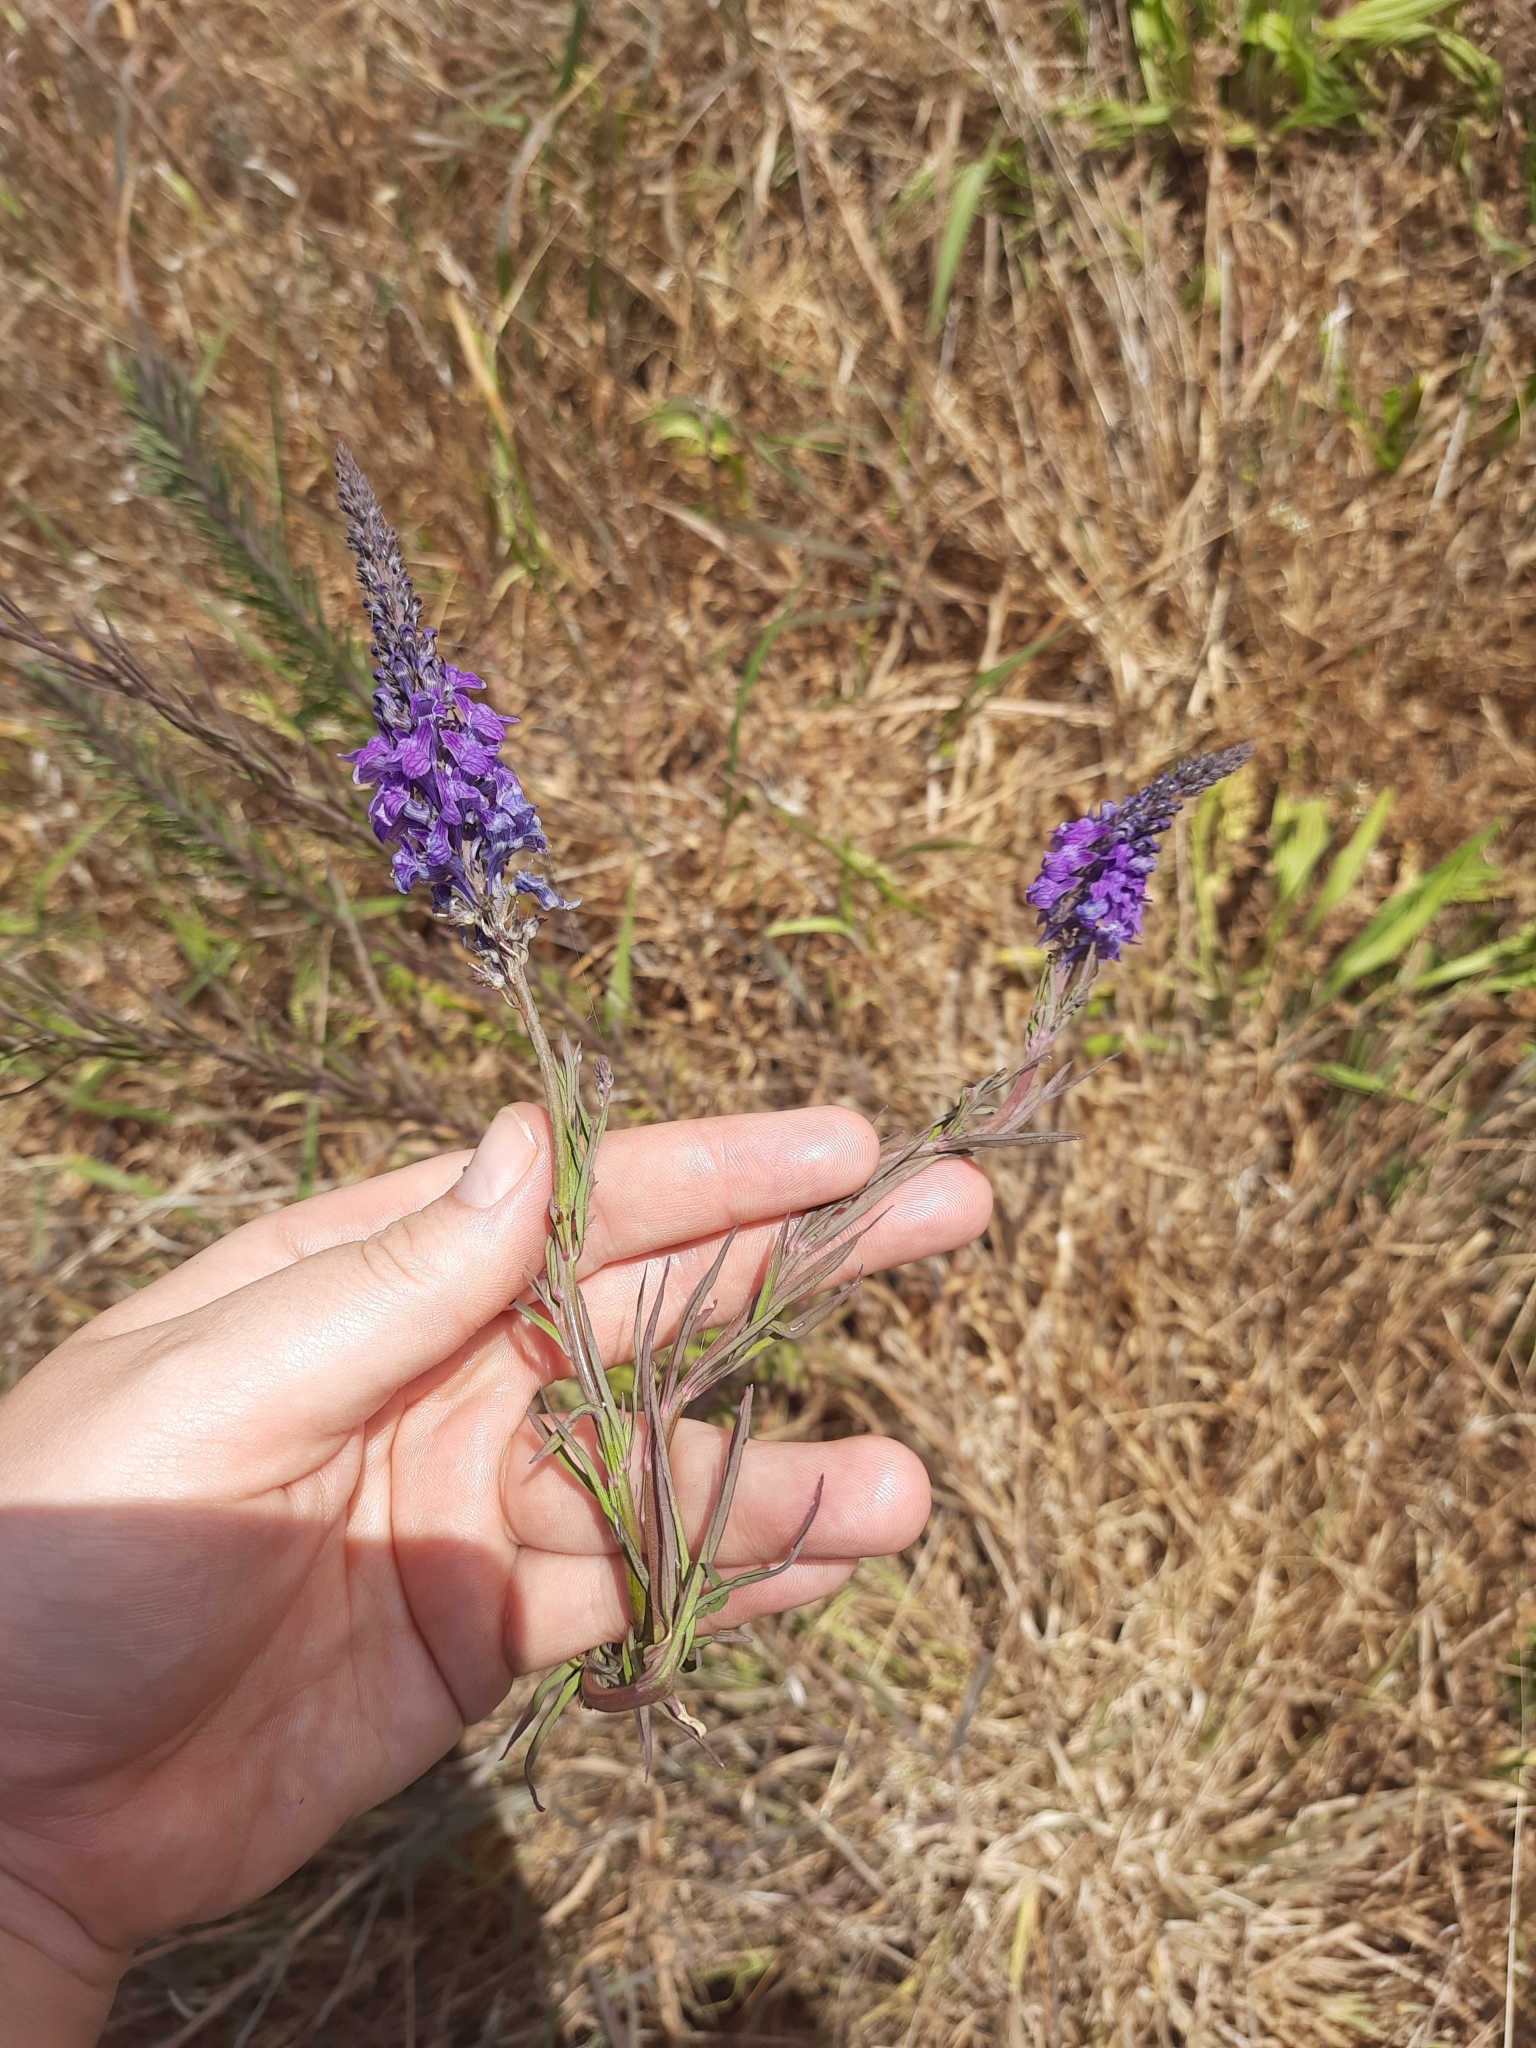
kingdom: Plantae
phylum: Tracheophyta
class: Magnoliopsida
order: Lamiales
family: Plantaginaceae
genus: Linaria
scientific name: Linaria purpurea
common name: Purple toadflax
